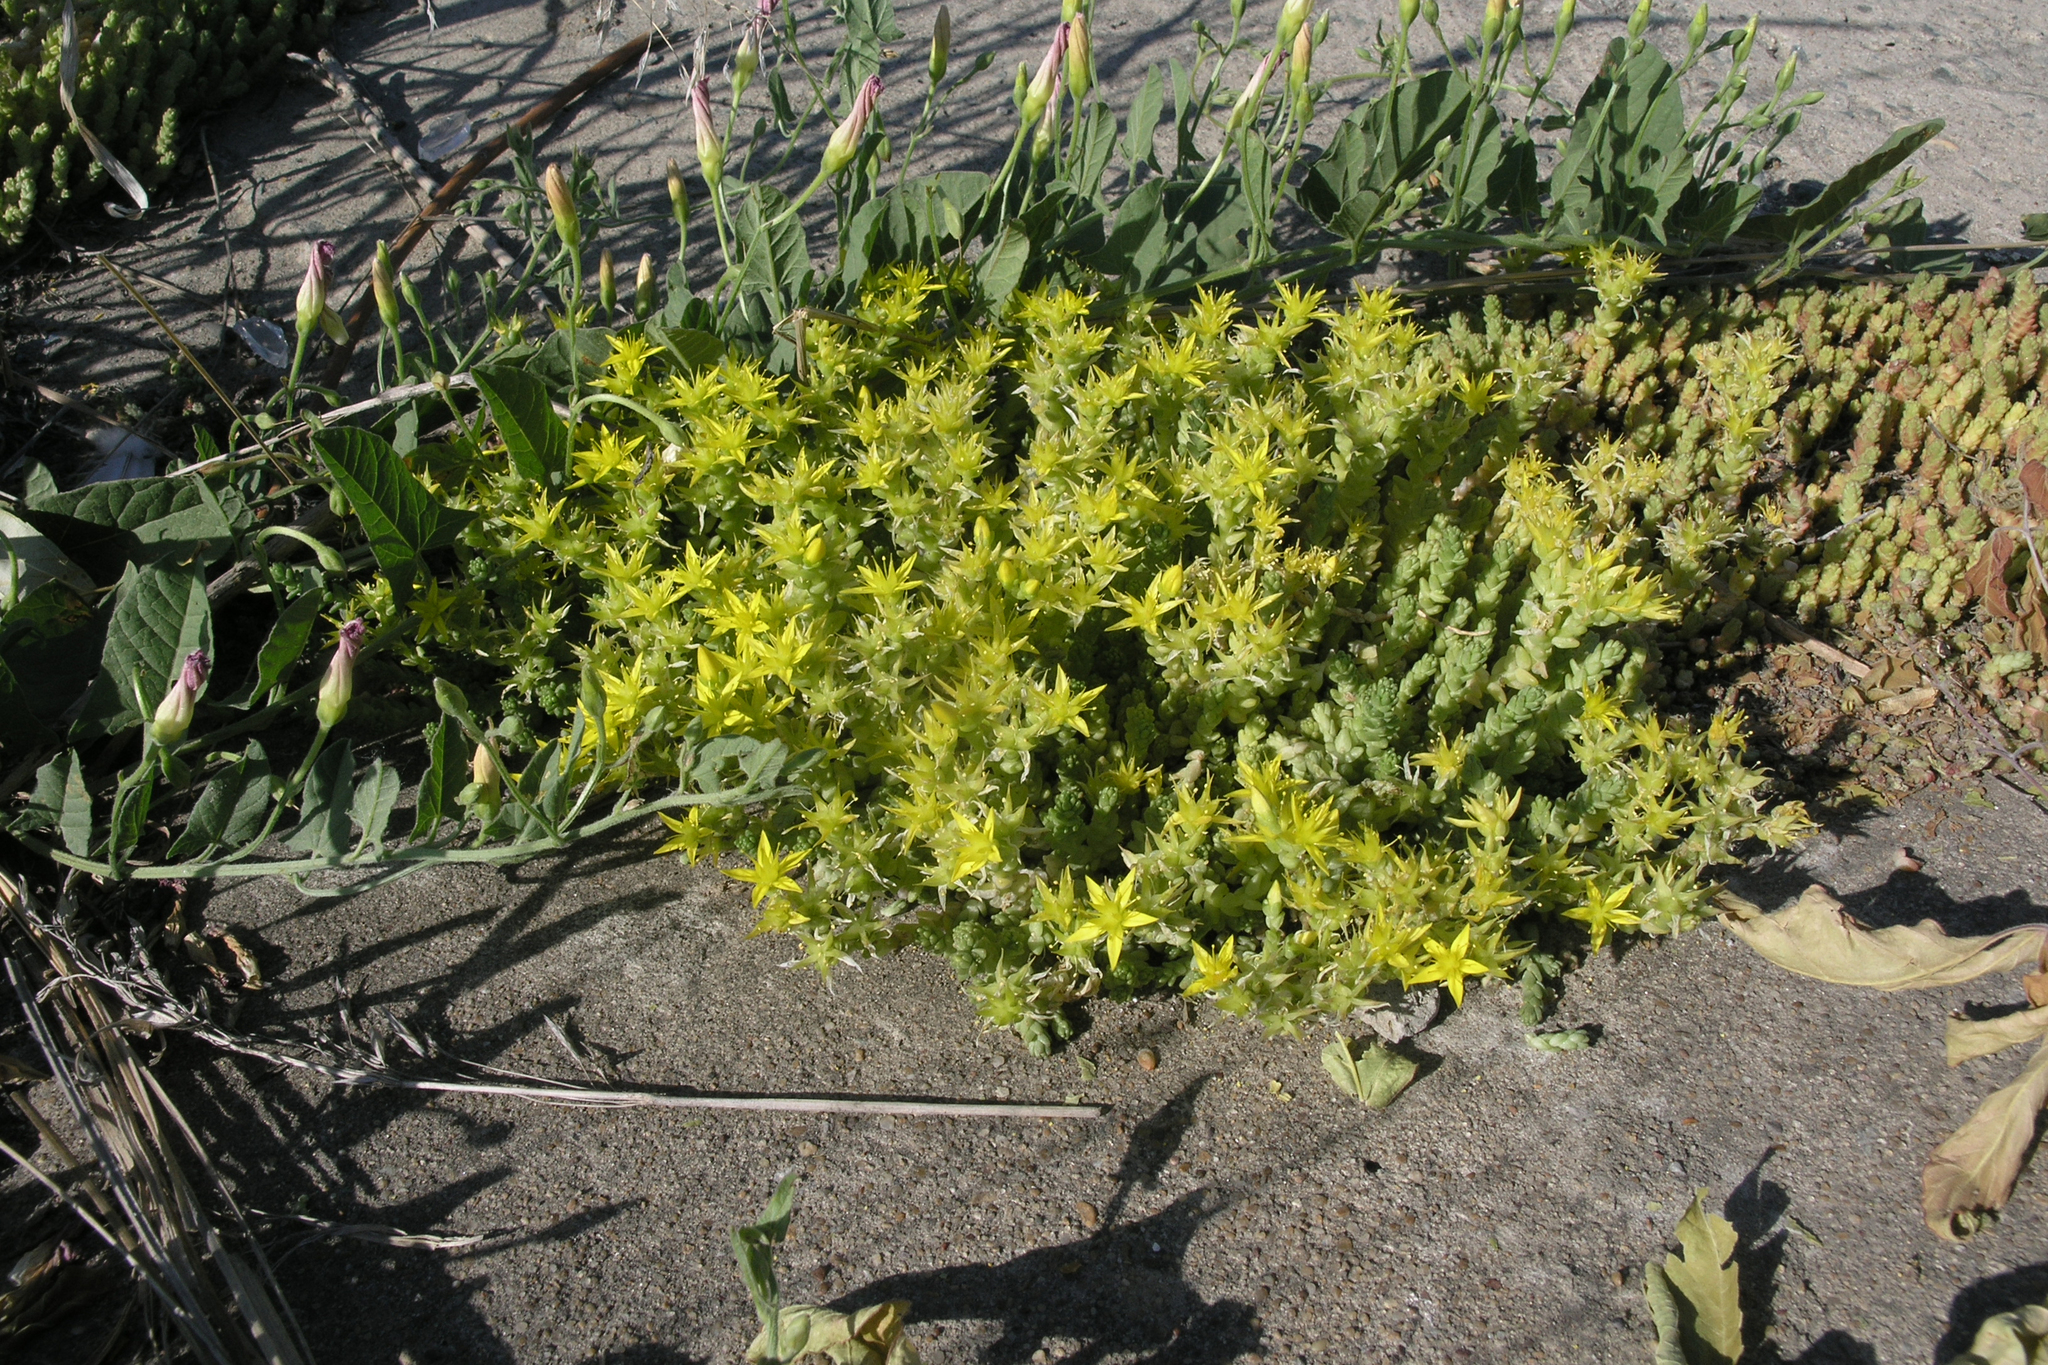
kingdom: Plantae
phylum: Tracheophyta
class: Magnoliopsida
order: Saxifragales
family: Crassulaceae
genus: Sedum
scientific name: Sedum acre
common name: Biting stonecrop
